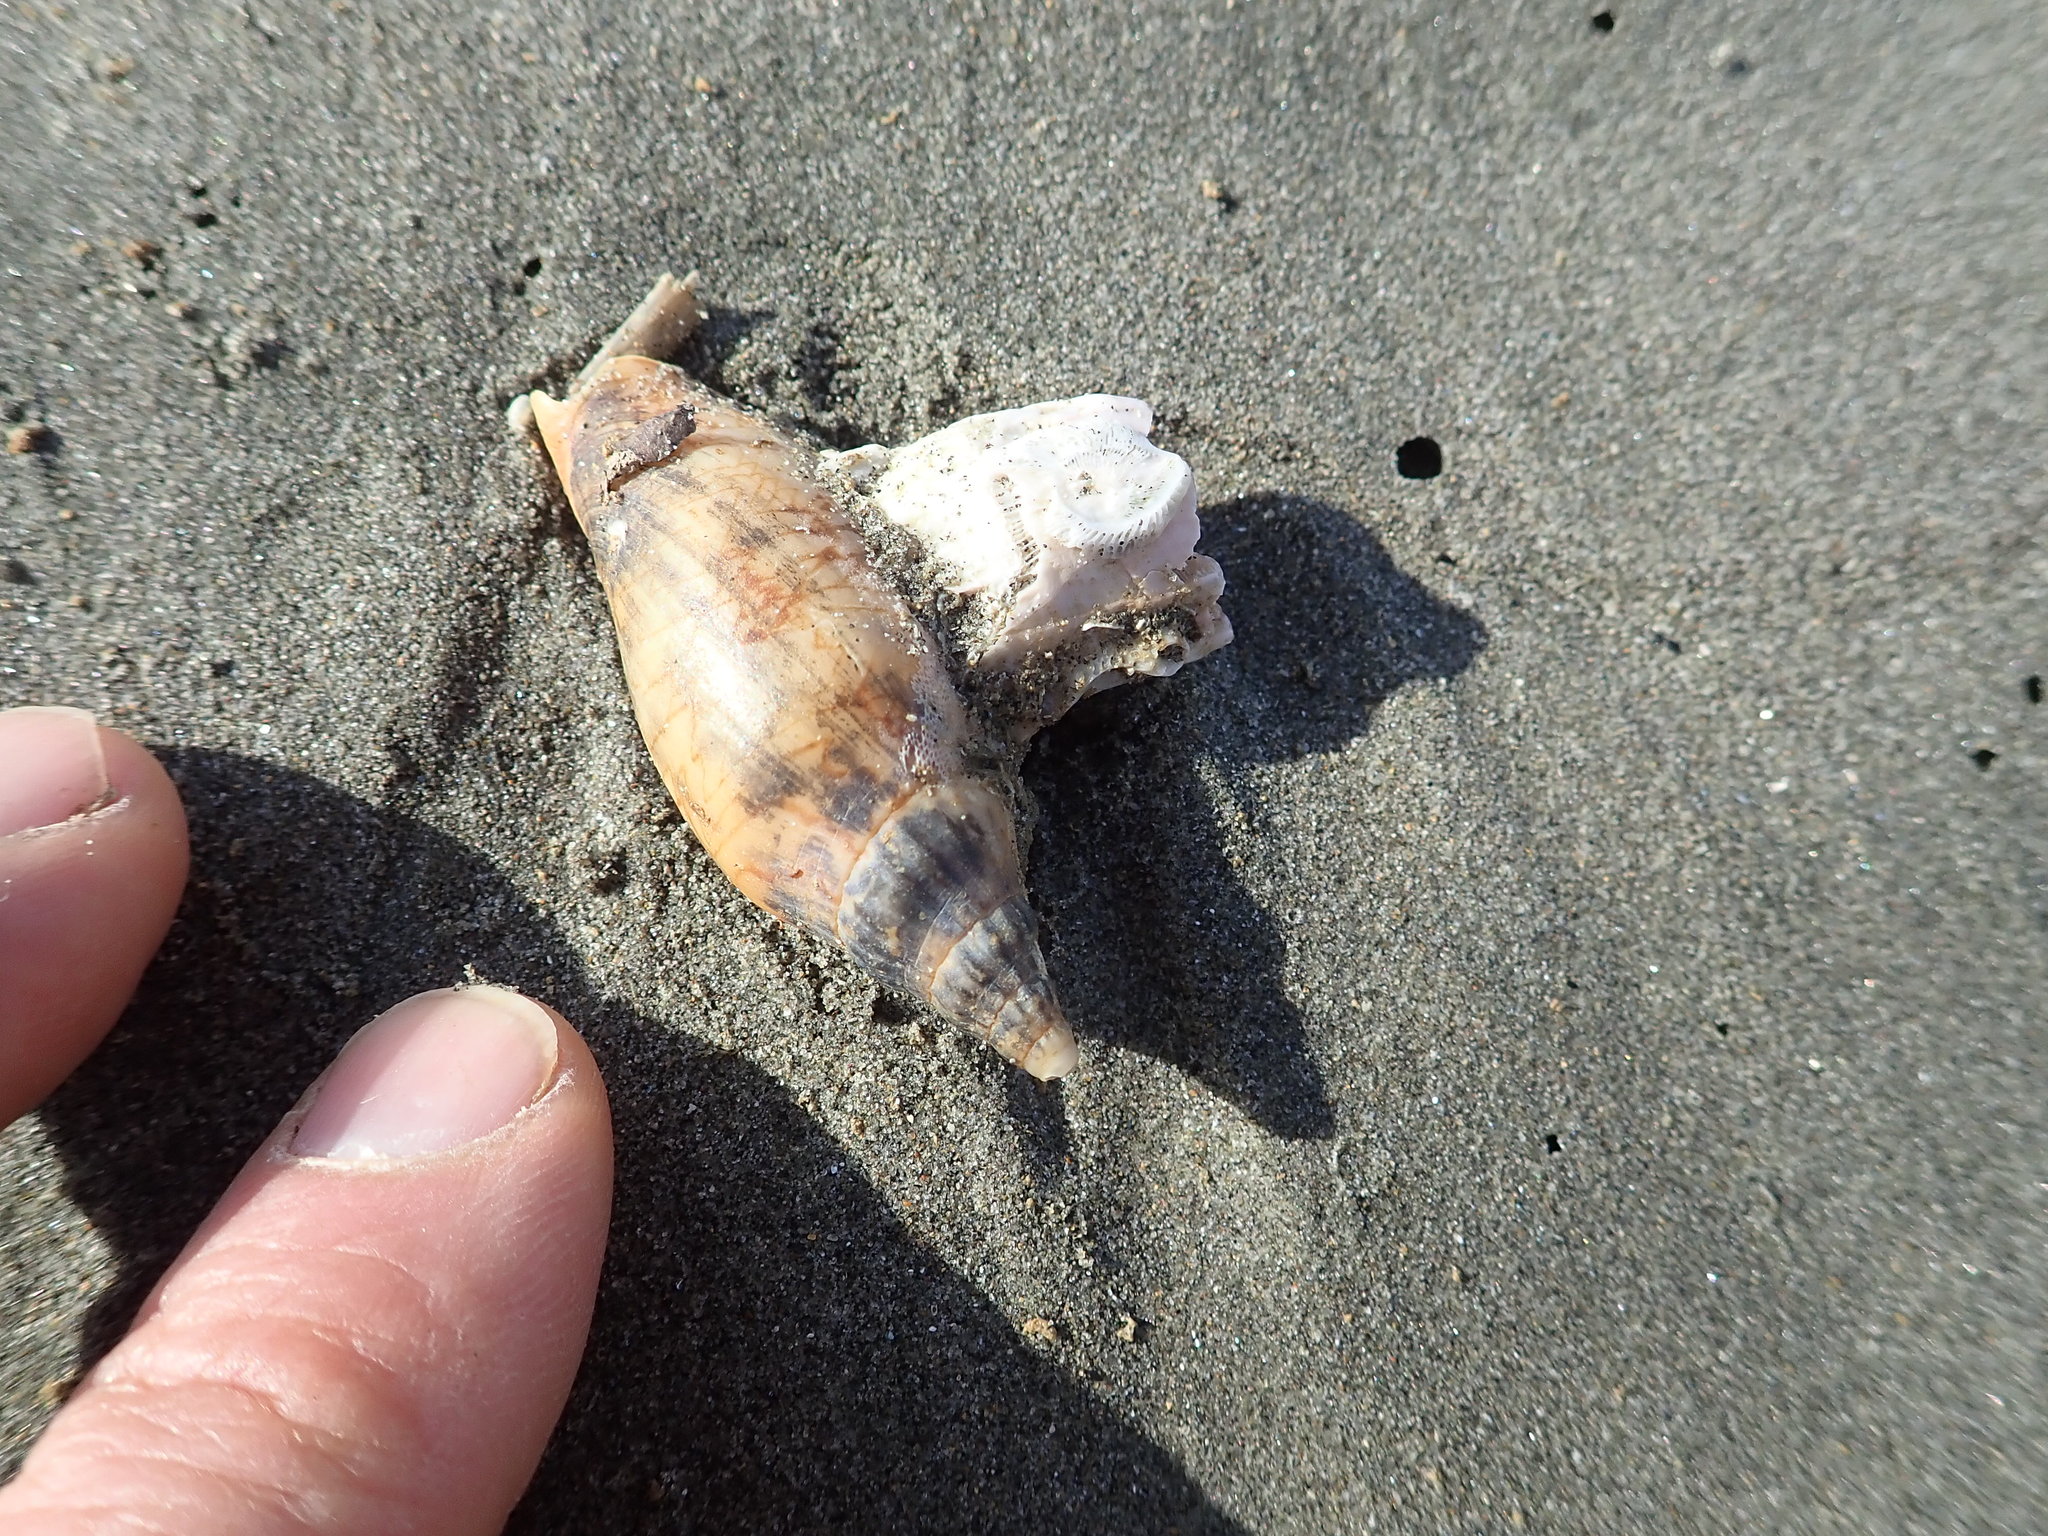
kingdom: Animalia
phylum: Mollusca
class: Gastropoda
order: Neogastropoda
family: Volutidae
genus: Alcithoe
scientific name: Alcithoe fusus
